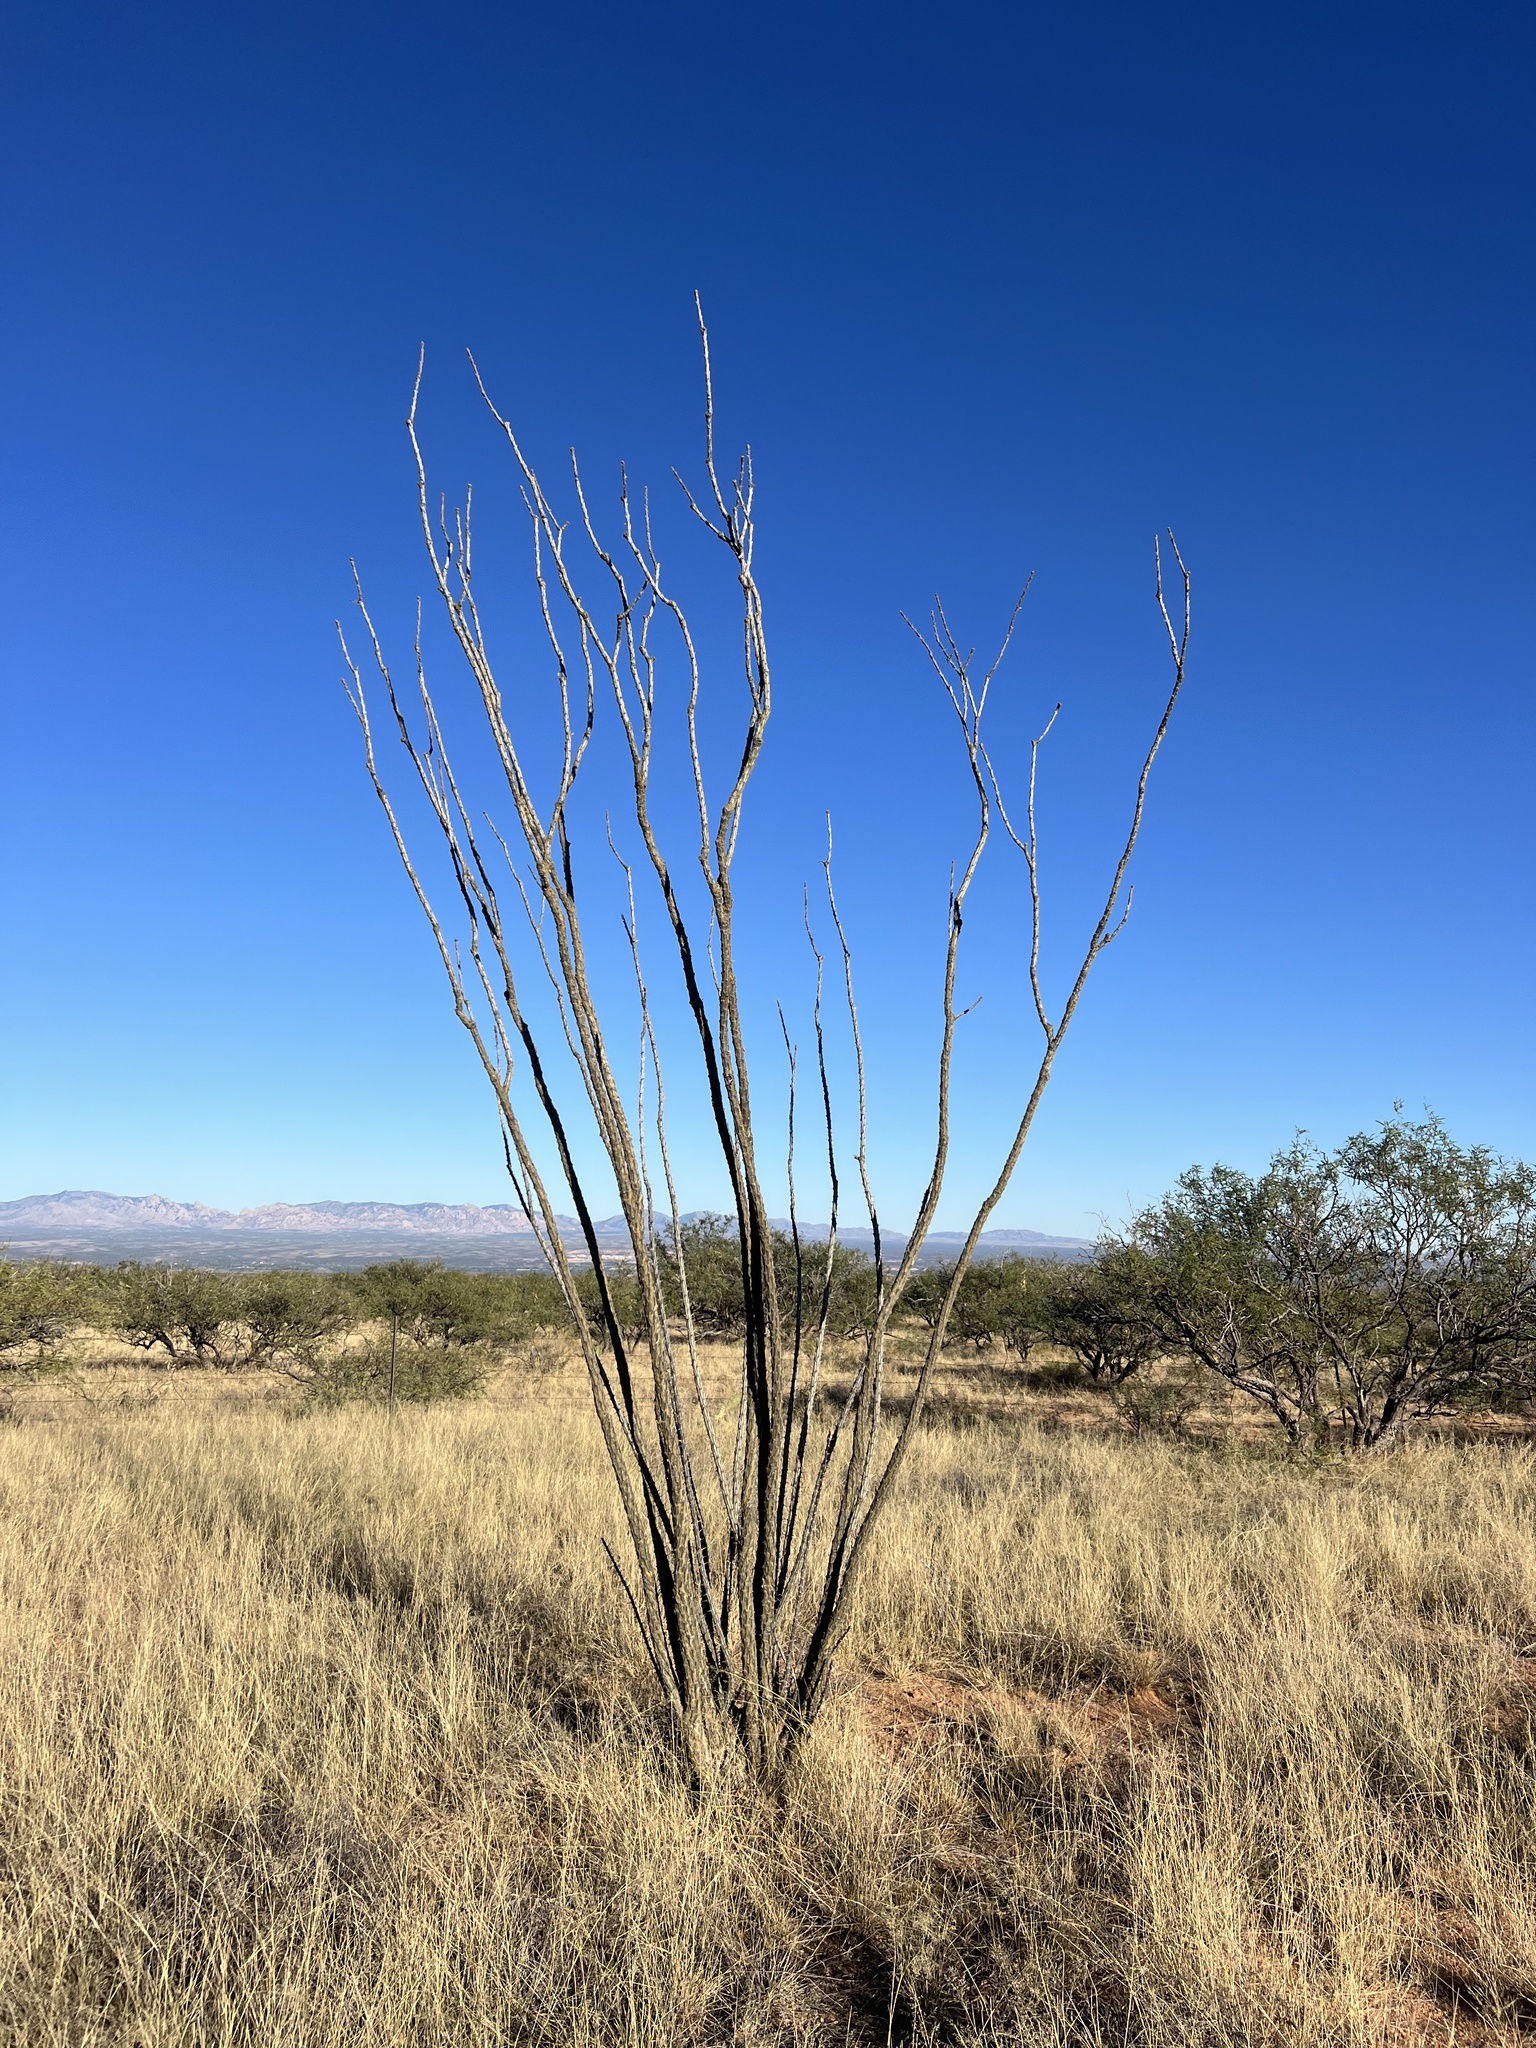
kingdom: Plantae
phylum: Tracheophyta
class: Magnoliopsida
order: Ericales
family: Fouquieriaceae
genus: Fouquieria
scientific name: Fouquieria splendens
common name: Vine-cactus
